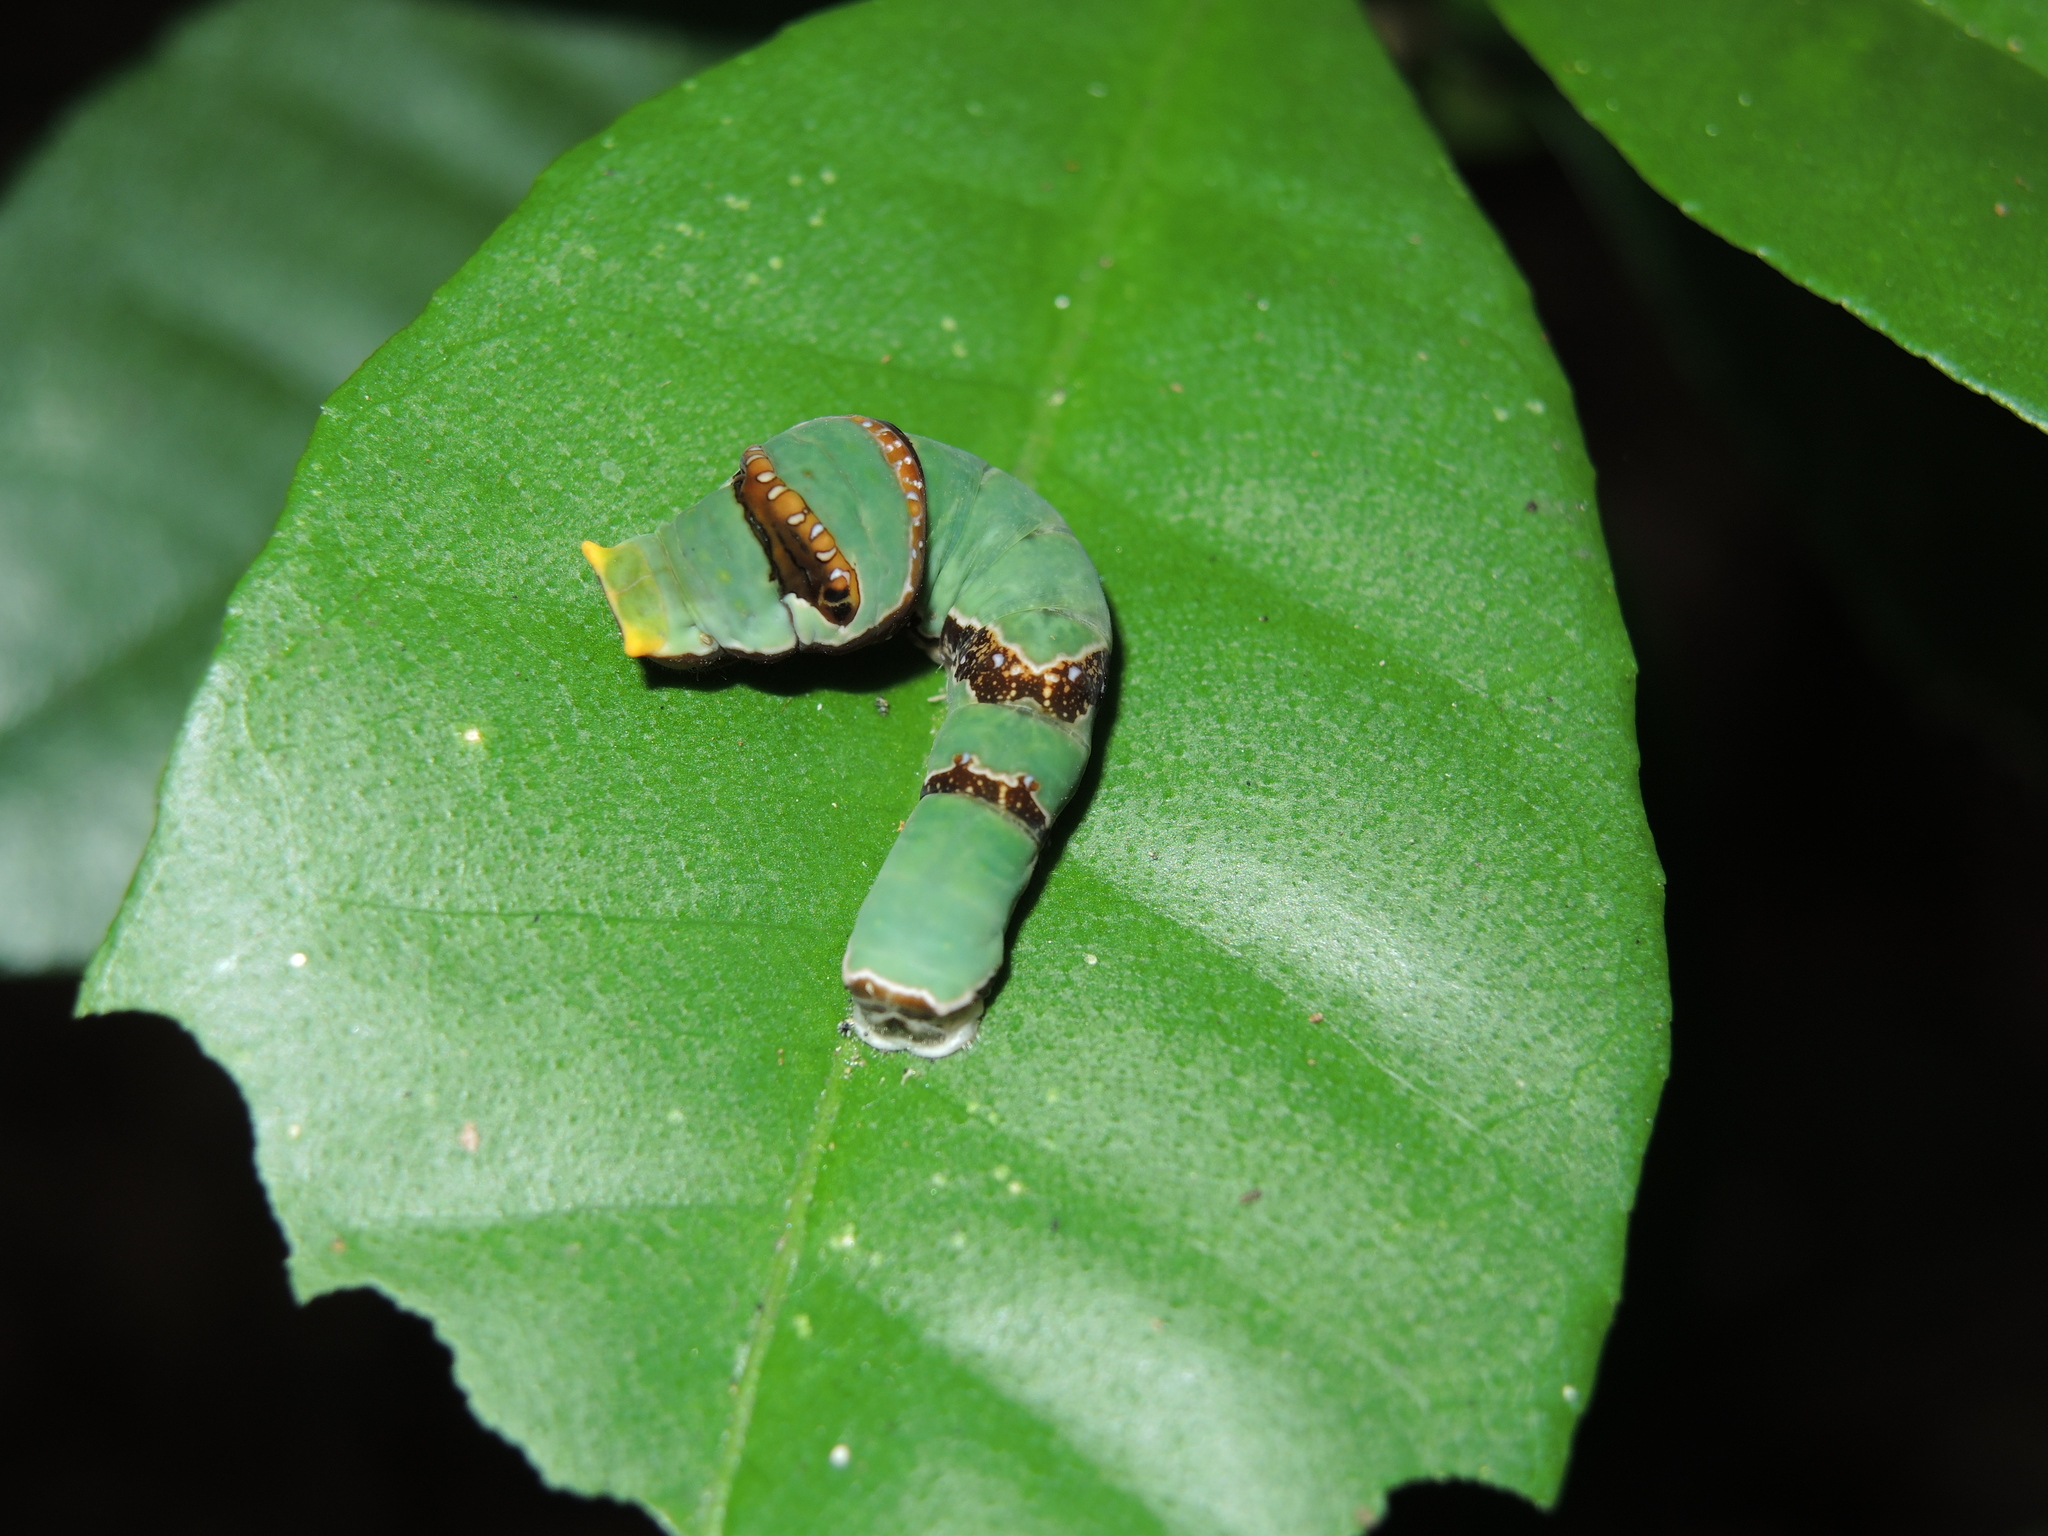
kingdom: Animalia
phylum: Arthropoda
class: Insecta
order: Lepidoptera
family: Papilionidae
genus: Papilio
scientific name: Papilio ambrax
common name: Ambrax butterfly
